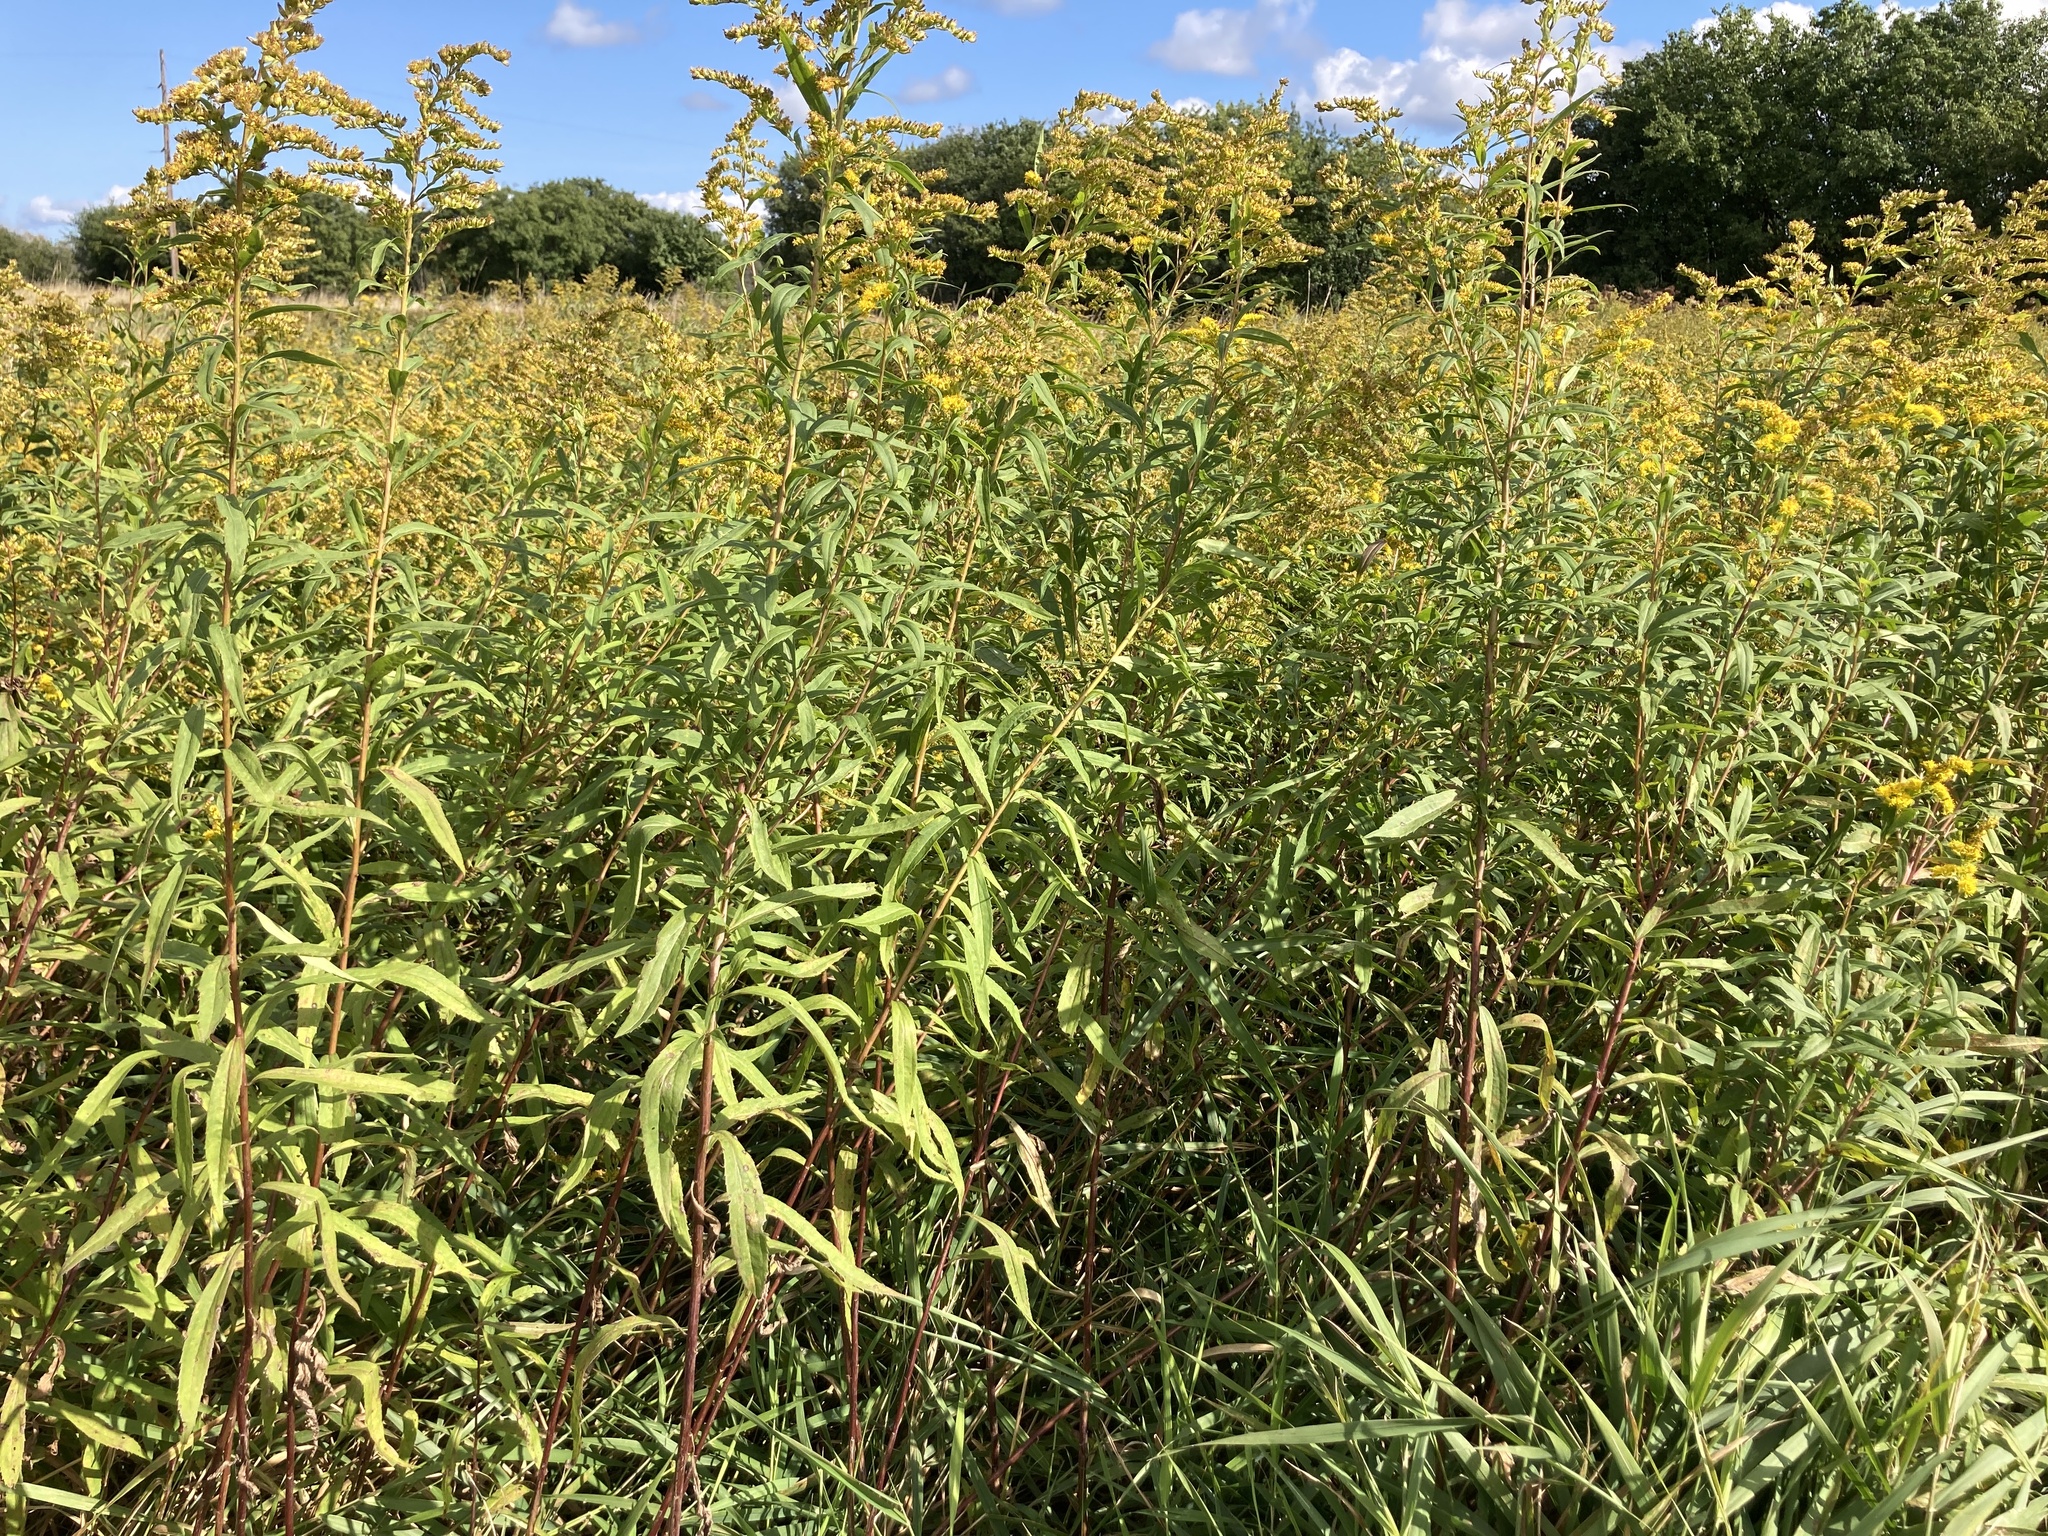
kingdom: Plantae
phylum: Tracheophyta
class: Magnoliopsida
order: Asterales
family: Asteraceae
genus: Solidago
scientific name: Solidago gigantea
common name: Giant goldenrod
